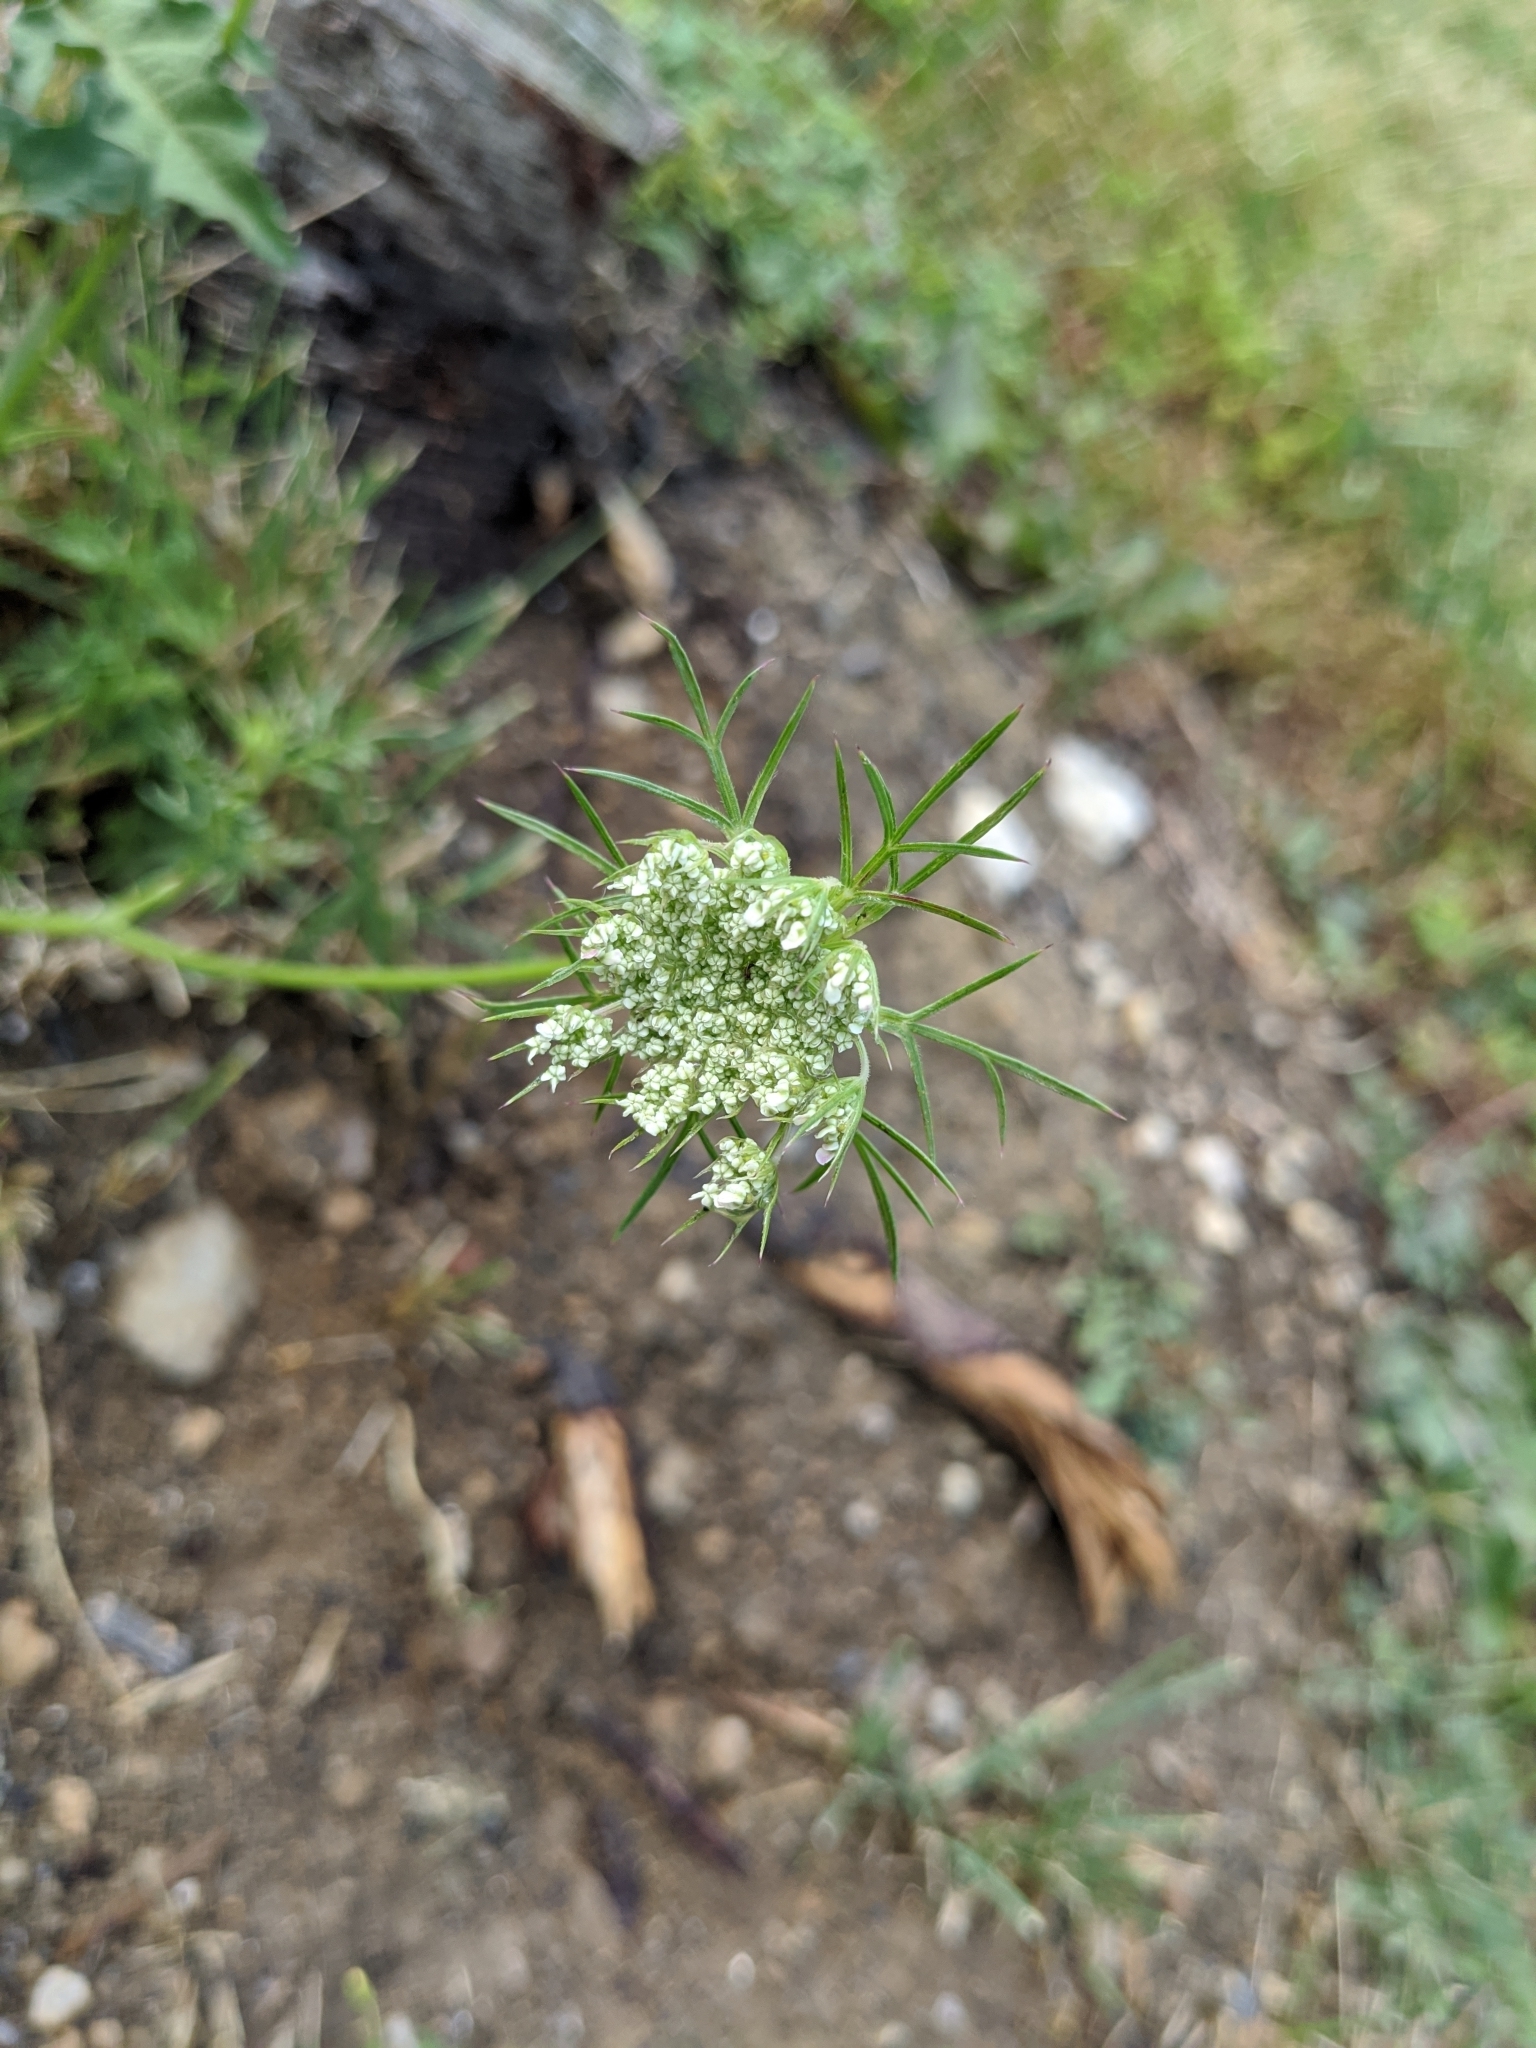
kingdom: Plantae
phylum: Tracheophyta
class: Magnoliopsida
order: Apiales
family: Apiaceae
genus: Daucus
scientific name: Daucus carota
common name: Wild carrot
